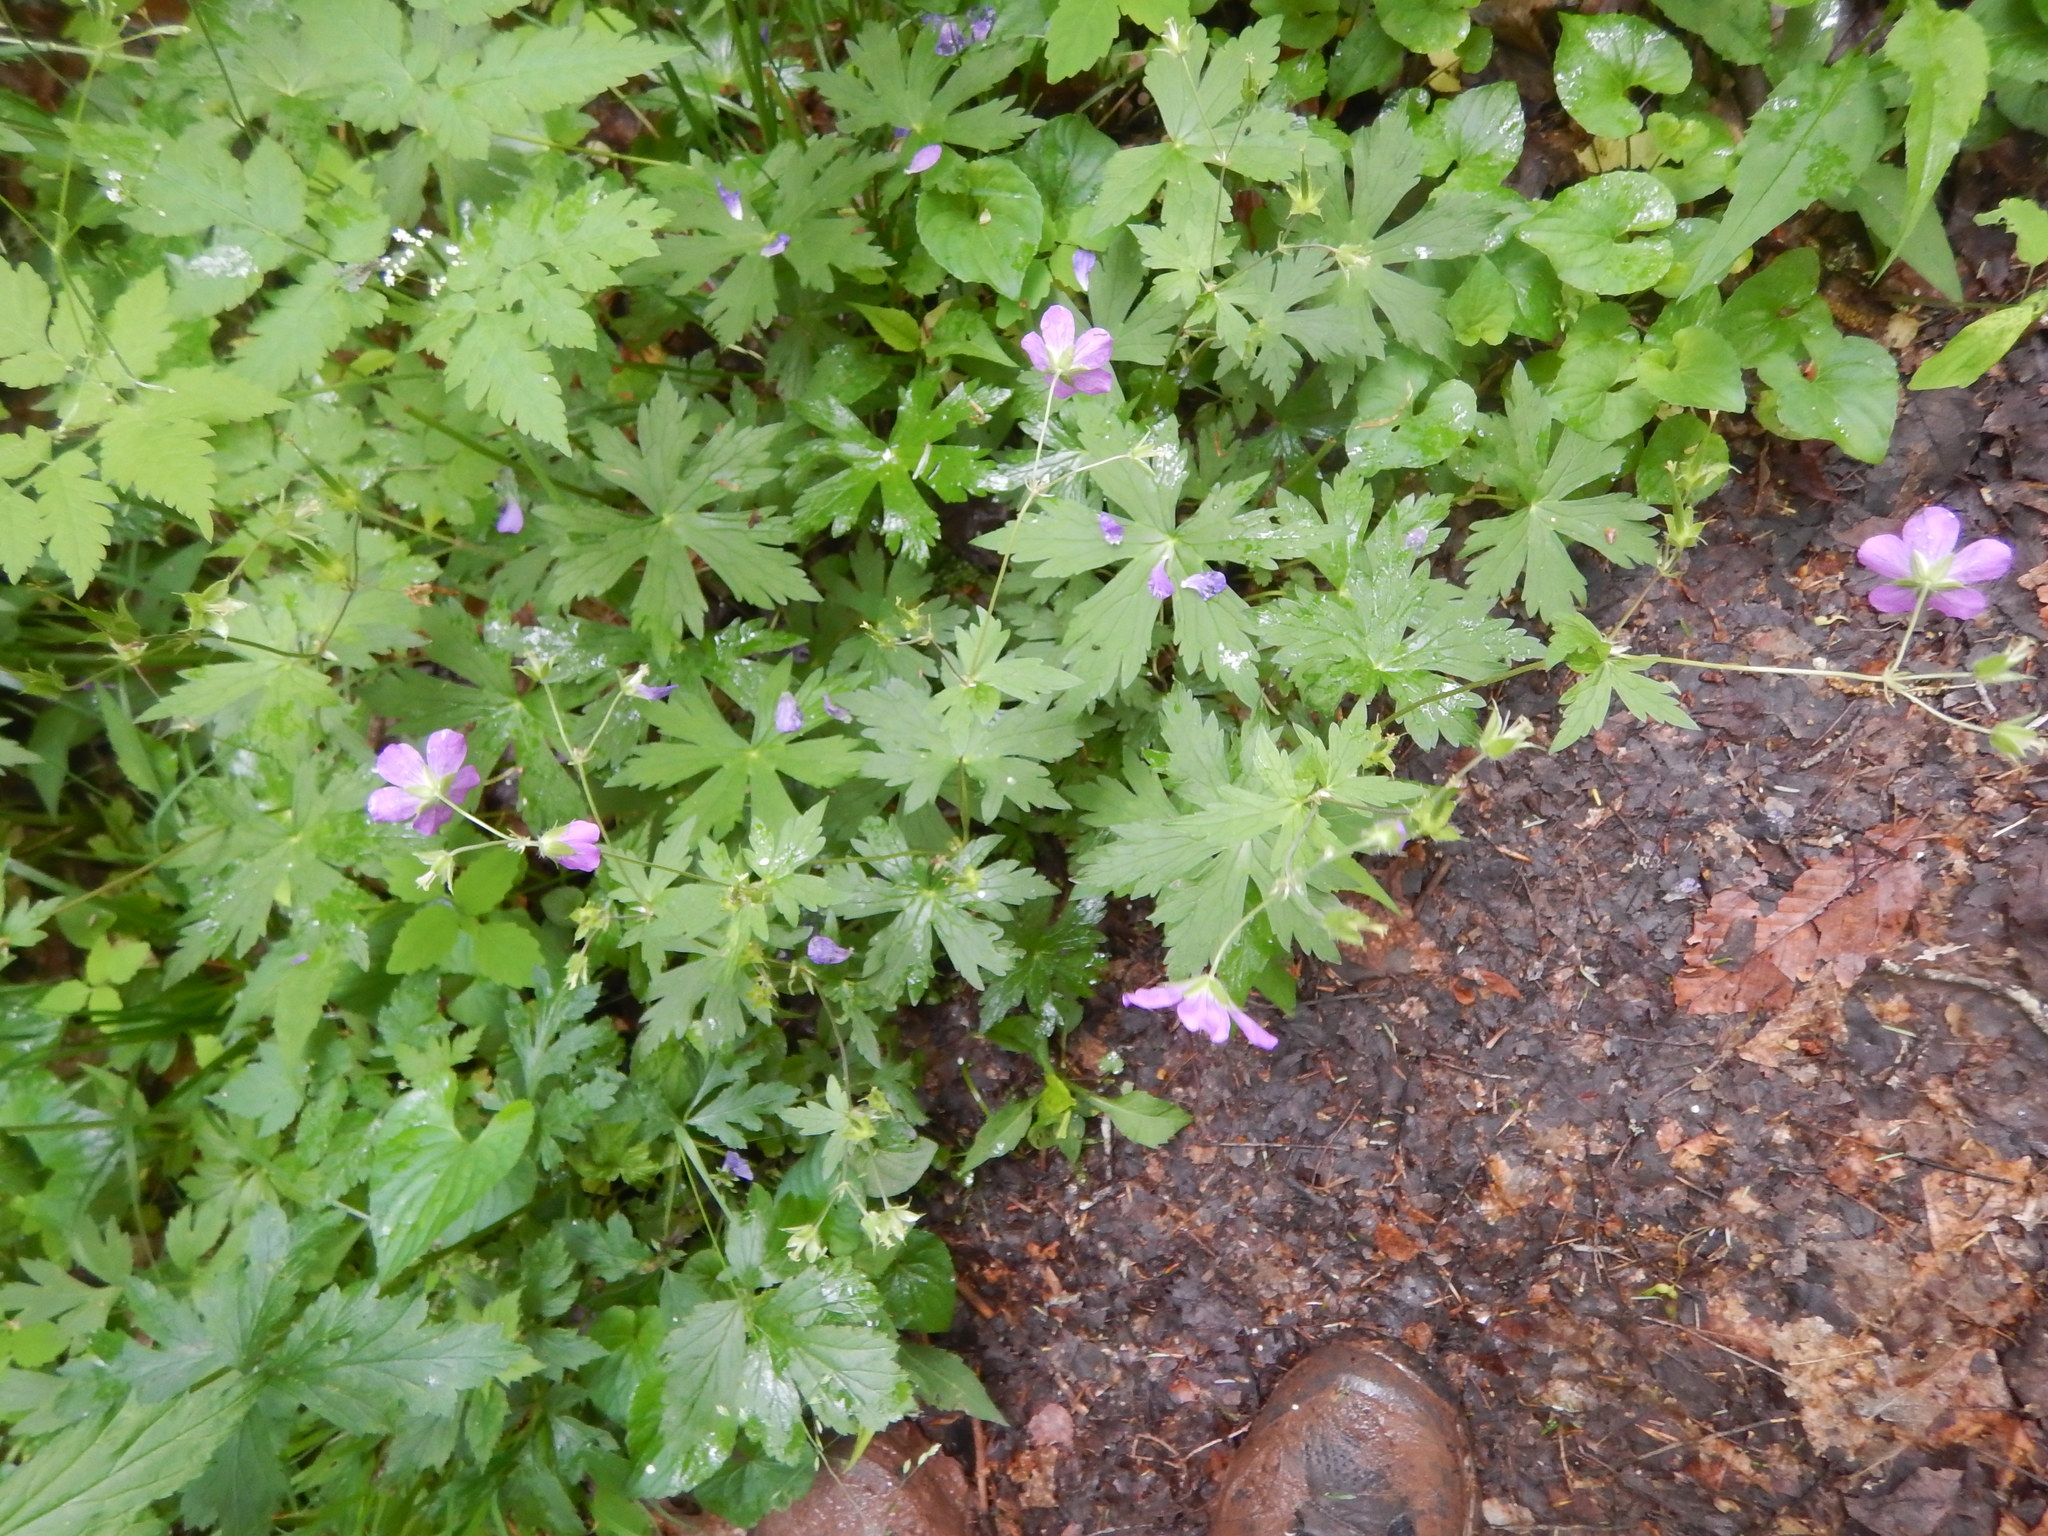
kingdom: Plantae
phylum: Tracheophyta
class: Magnoliopsida
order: Geraniales
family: Geraniaceae
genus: Geranium
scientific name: Geranium maculatum
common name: Spotted geranium
